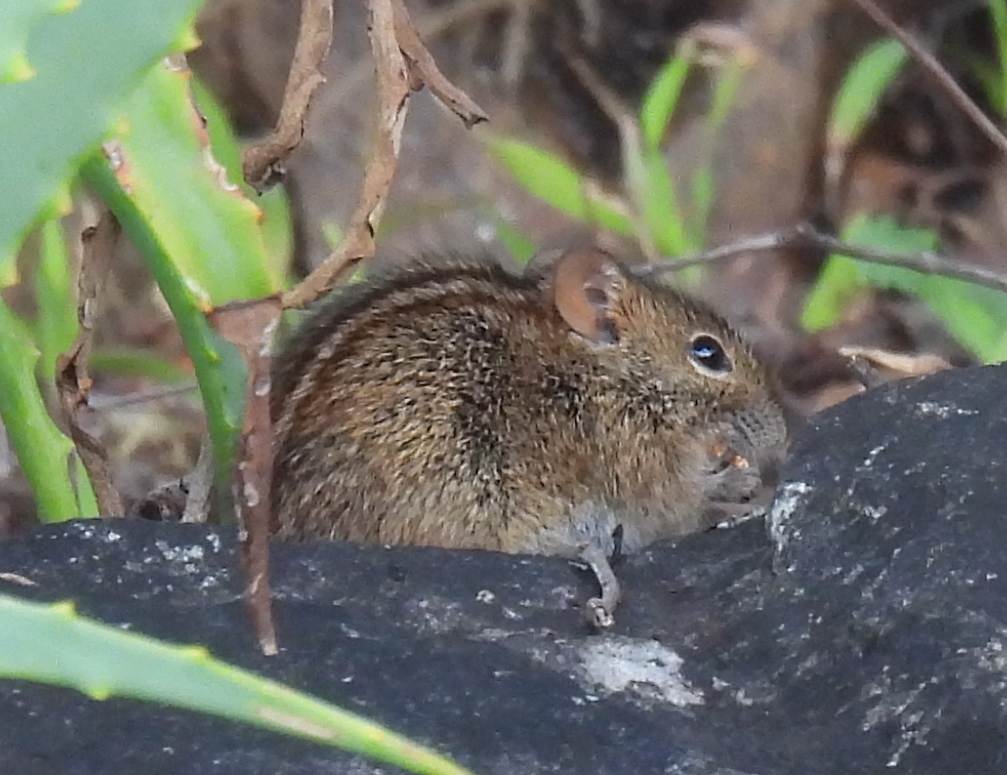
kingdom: Animalia
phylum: Chordata
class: Mammalia
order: Rodentia
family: Muridae
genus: Rhabdomys
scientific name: Rhabdomys pumilio
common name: Xeric four-striped grass rat
